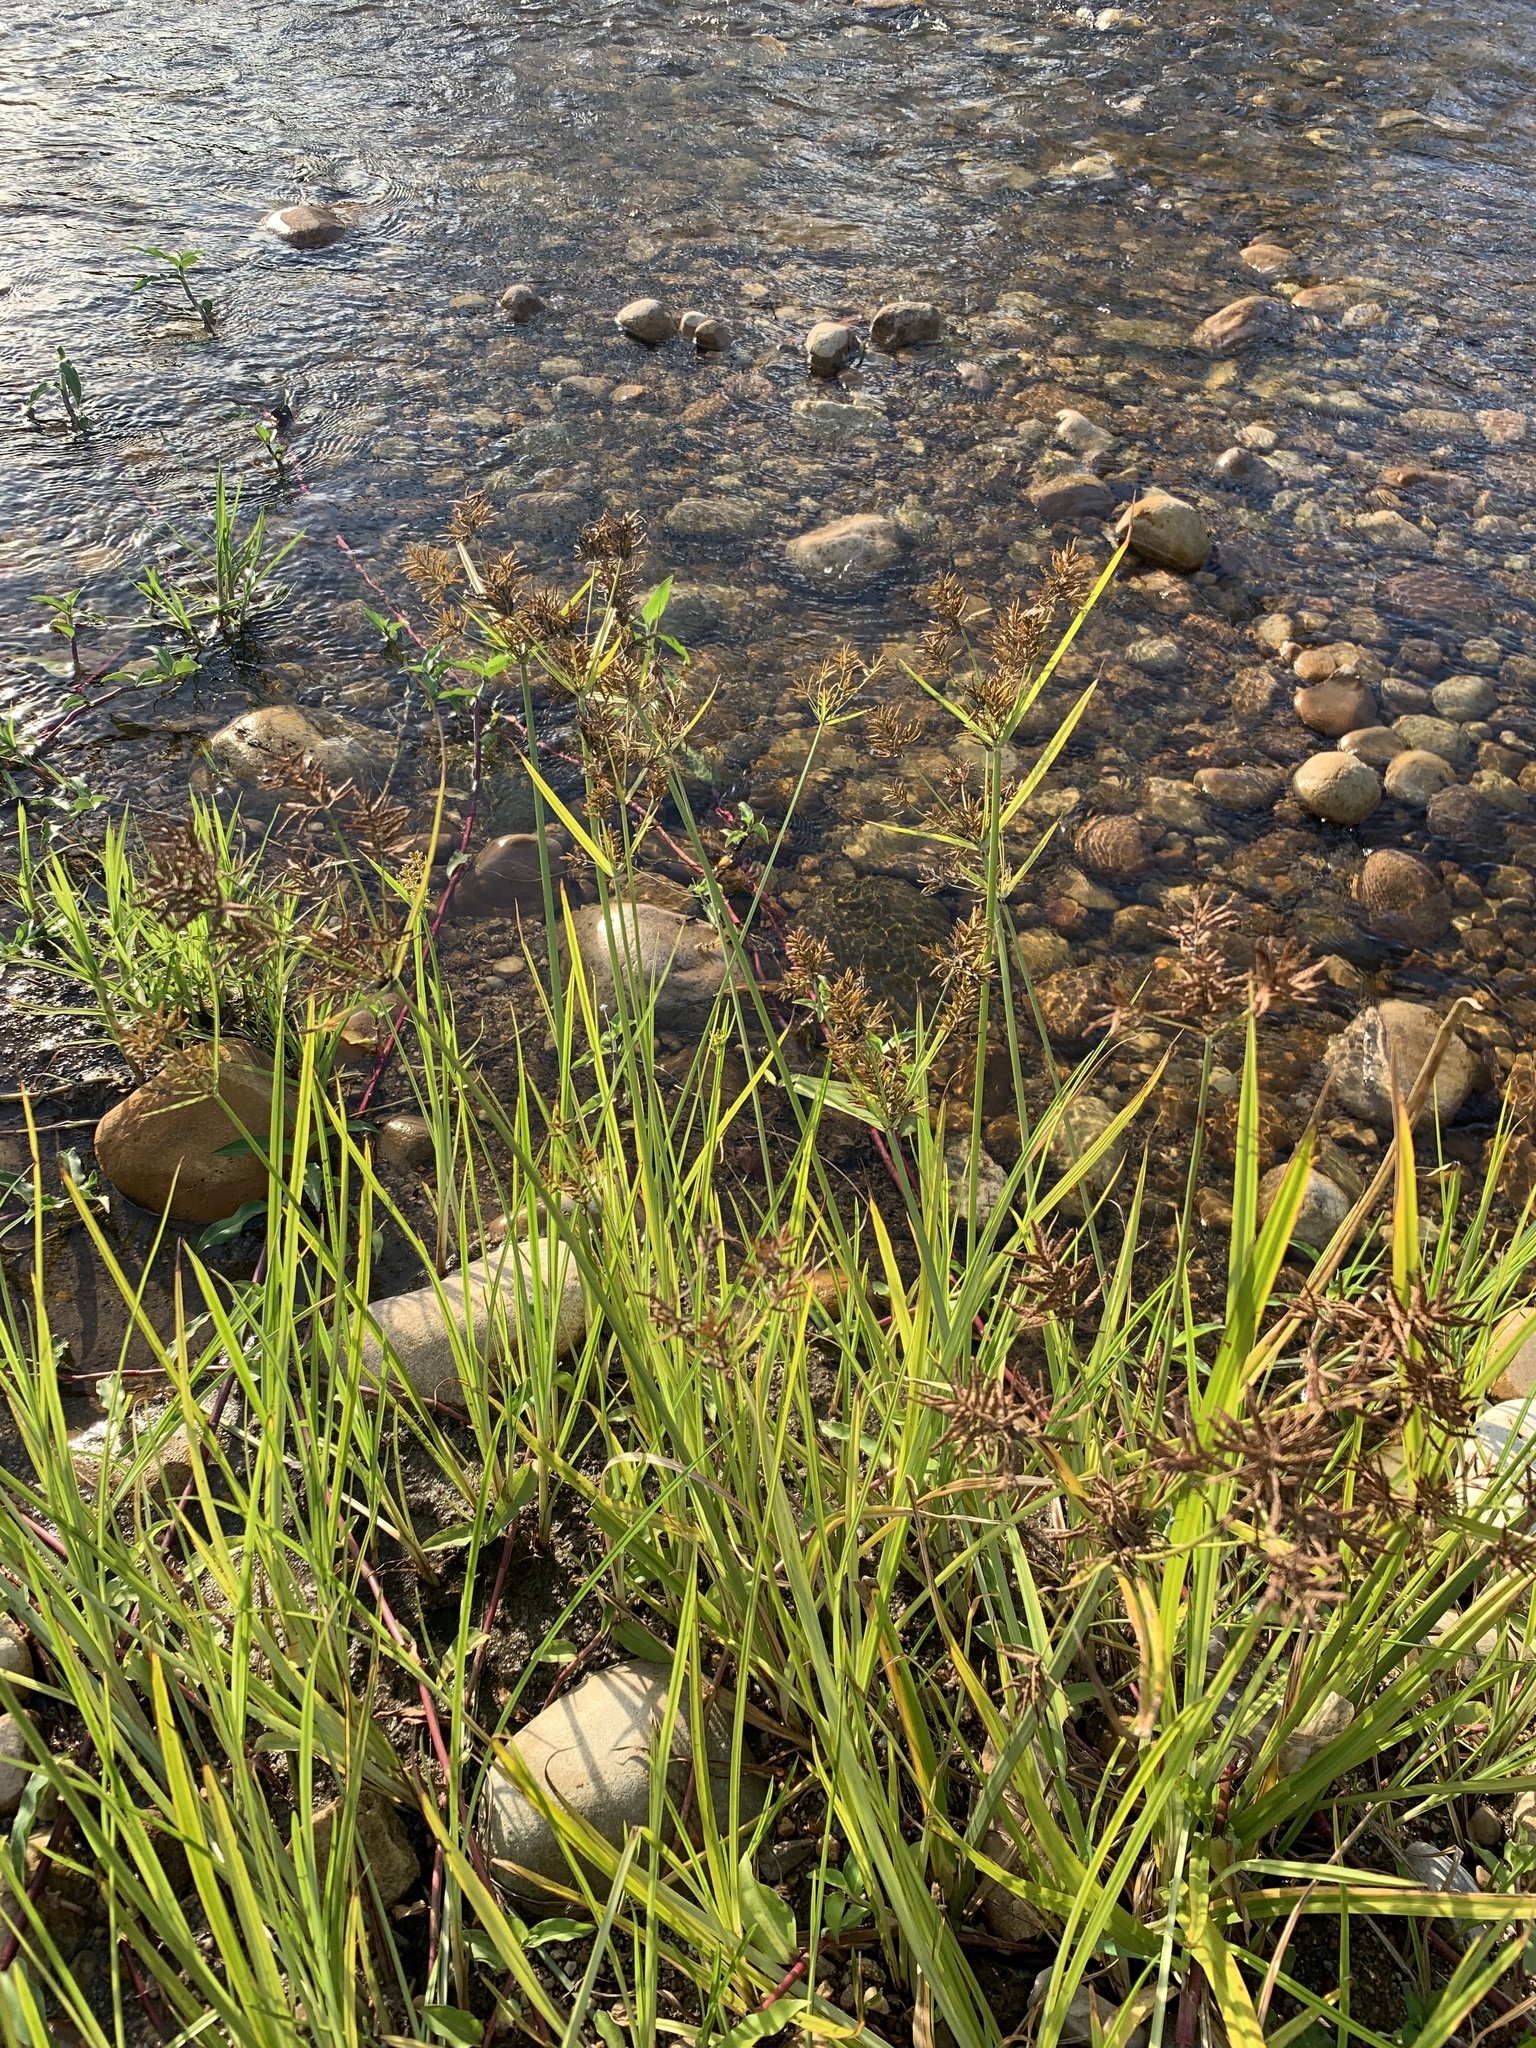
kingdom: Plantae
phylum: Tracheophyta
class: Liliopsida
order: Poales
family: Cyperaceae
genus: Cyperus
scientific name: Cyperus esculentus
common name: Yellow nutsedge
